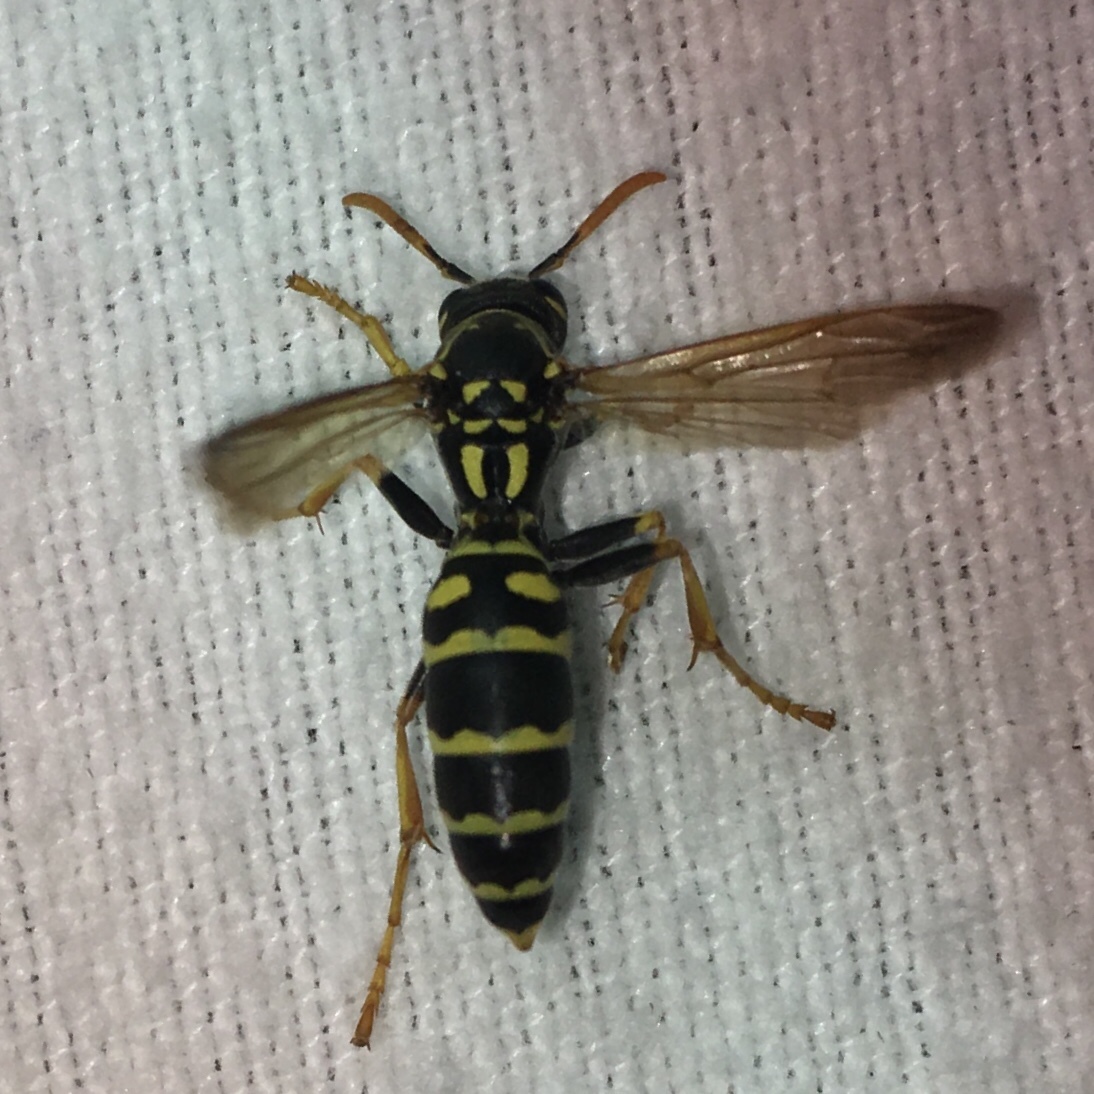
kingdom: Animalia
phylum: Arthropoda
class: Insecta
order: Hymenoptera
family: Eumenidae
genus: Polistes
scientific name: Polistes dominula
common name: Paper wasp
